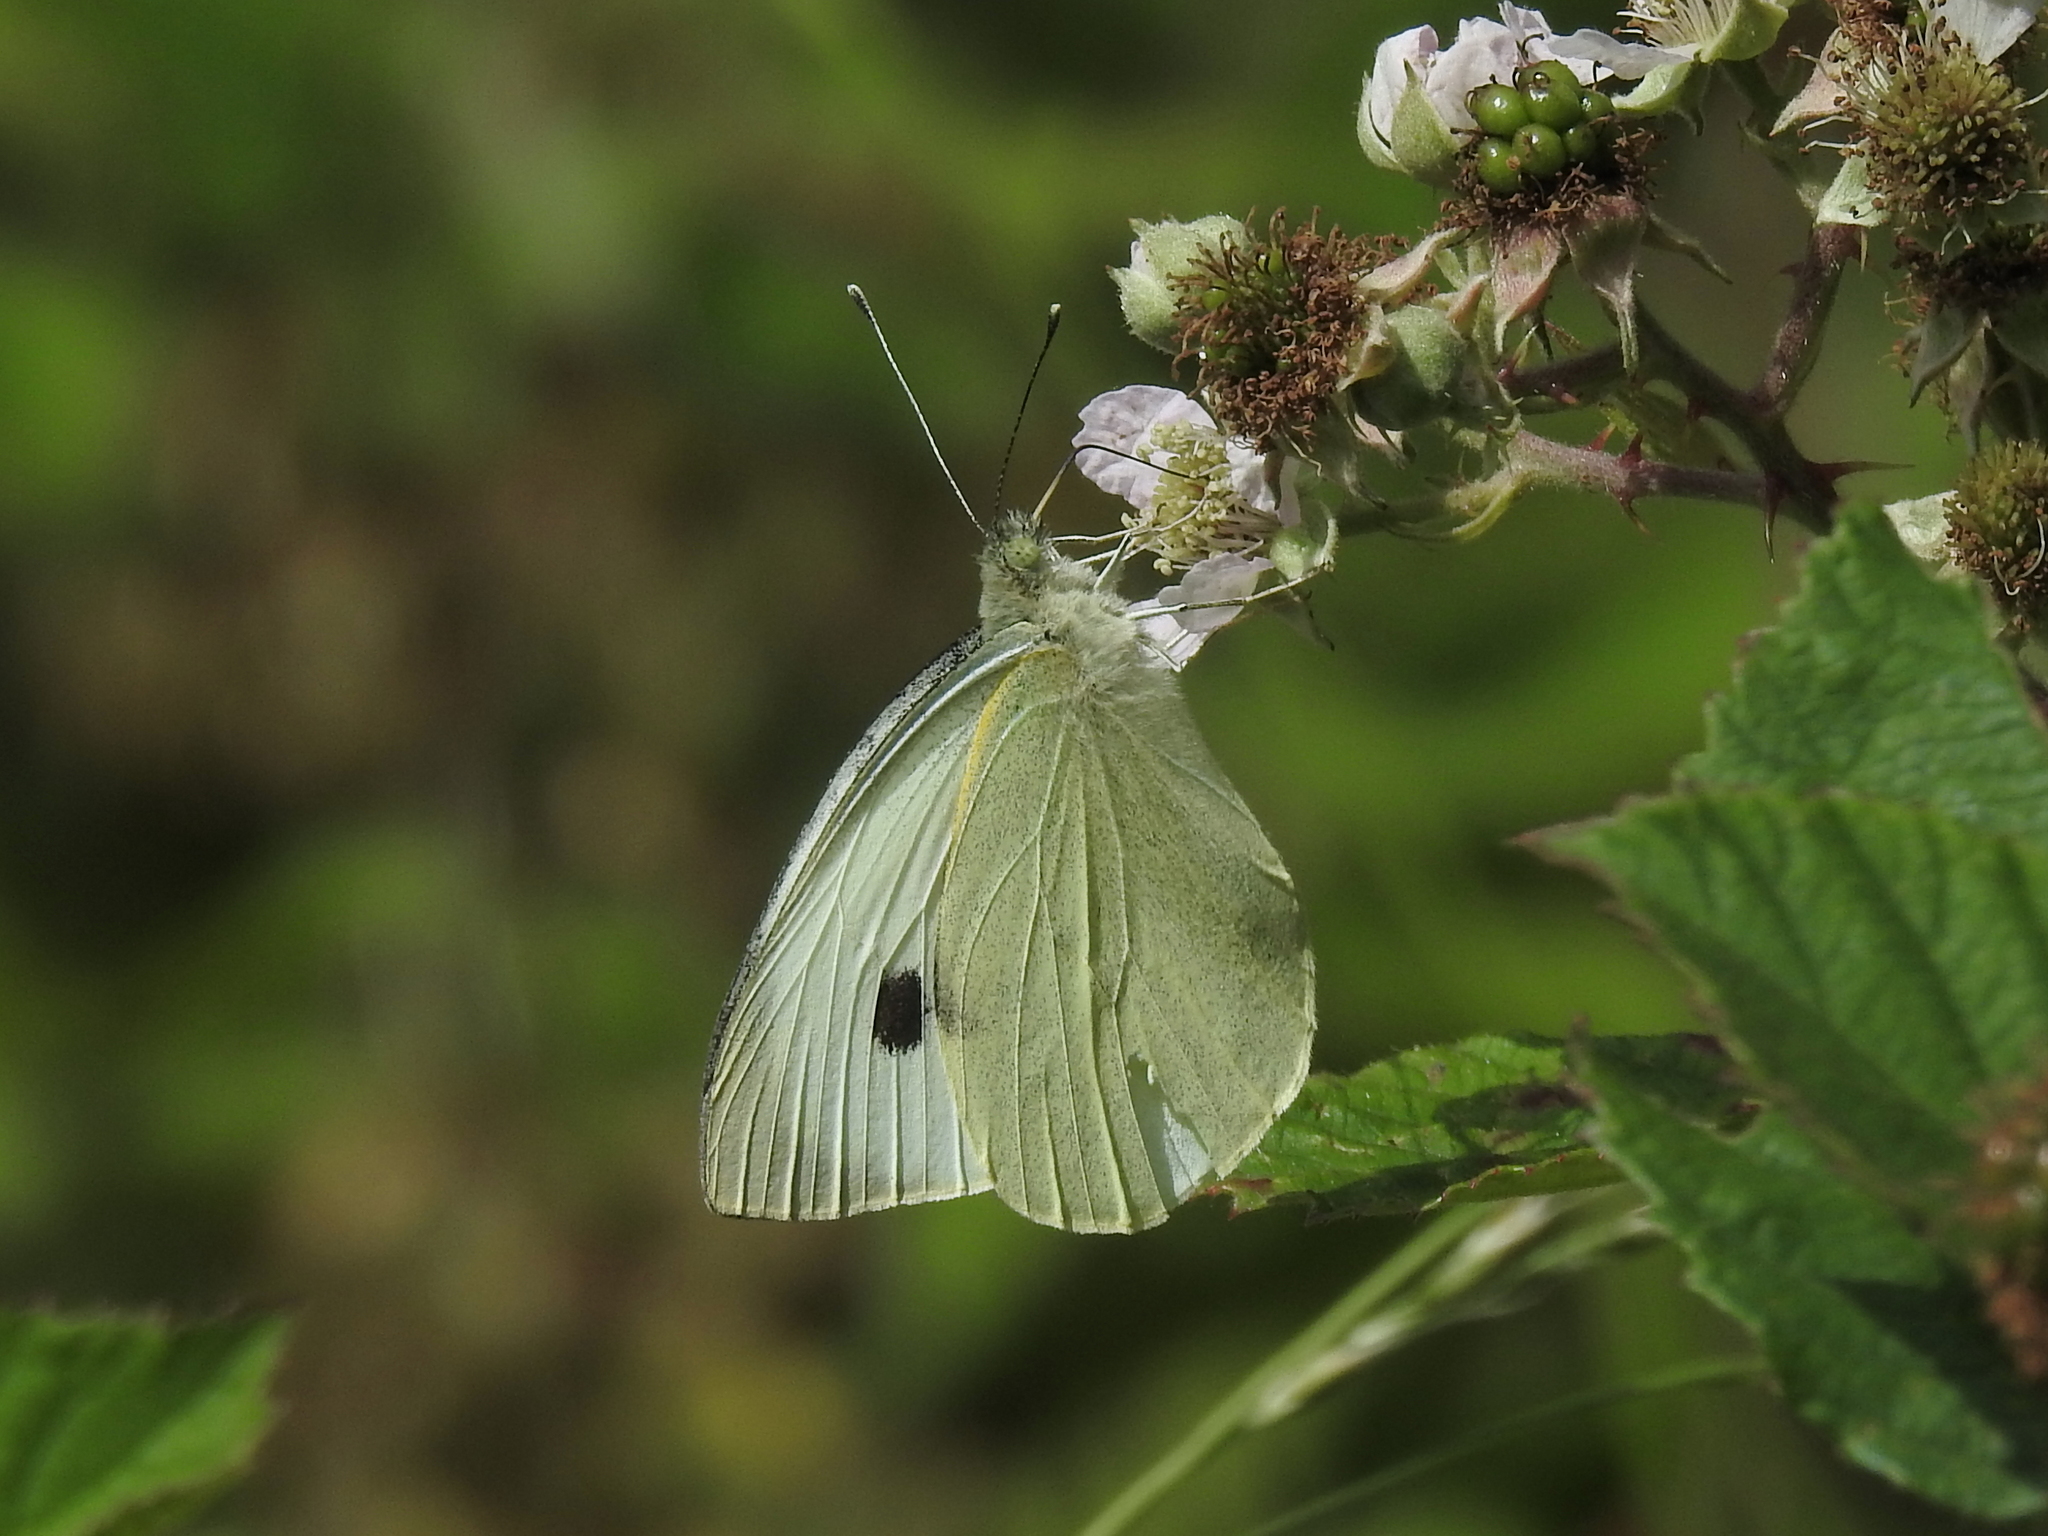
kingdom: Animalia
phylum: Arthropoda
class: Insecta
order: Lepidoptera
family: Pieridae
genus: Pieris
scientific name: Pieris brassicae
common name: Large white
